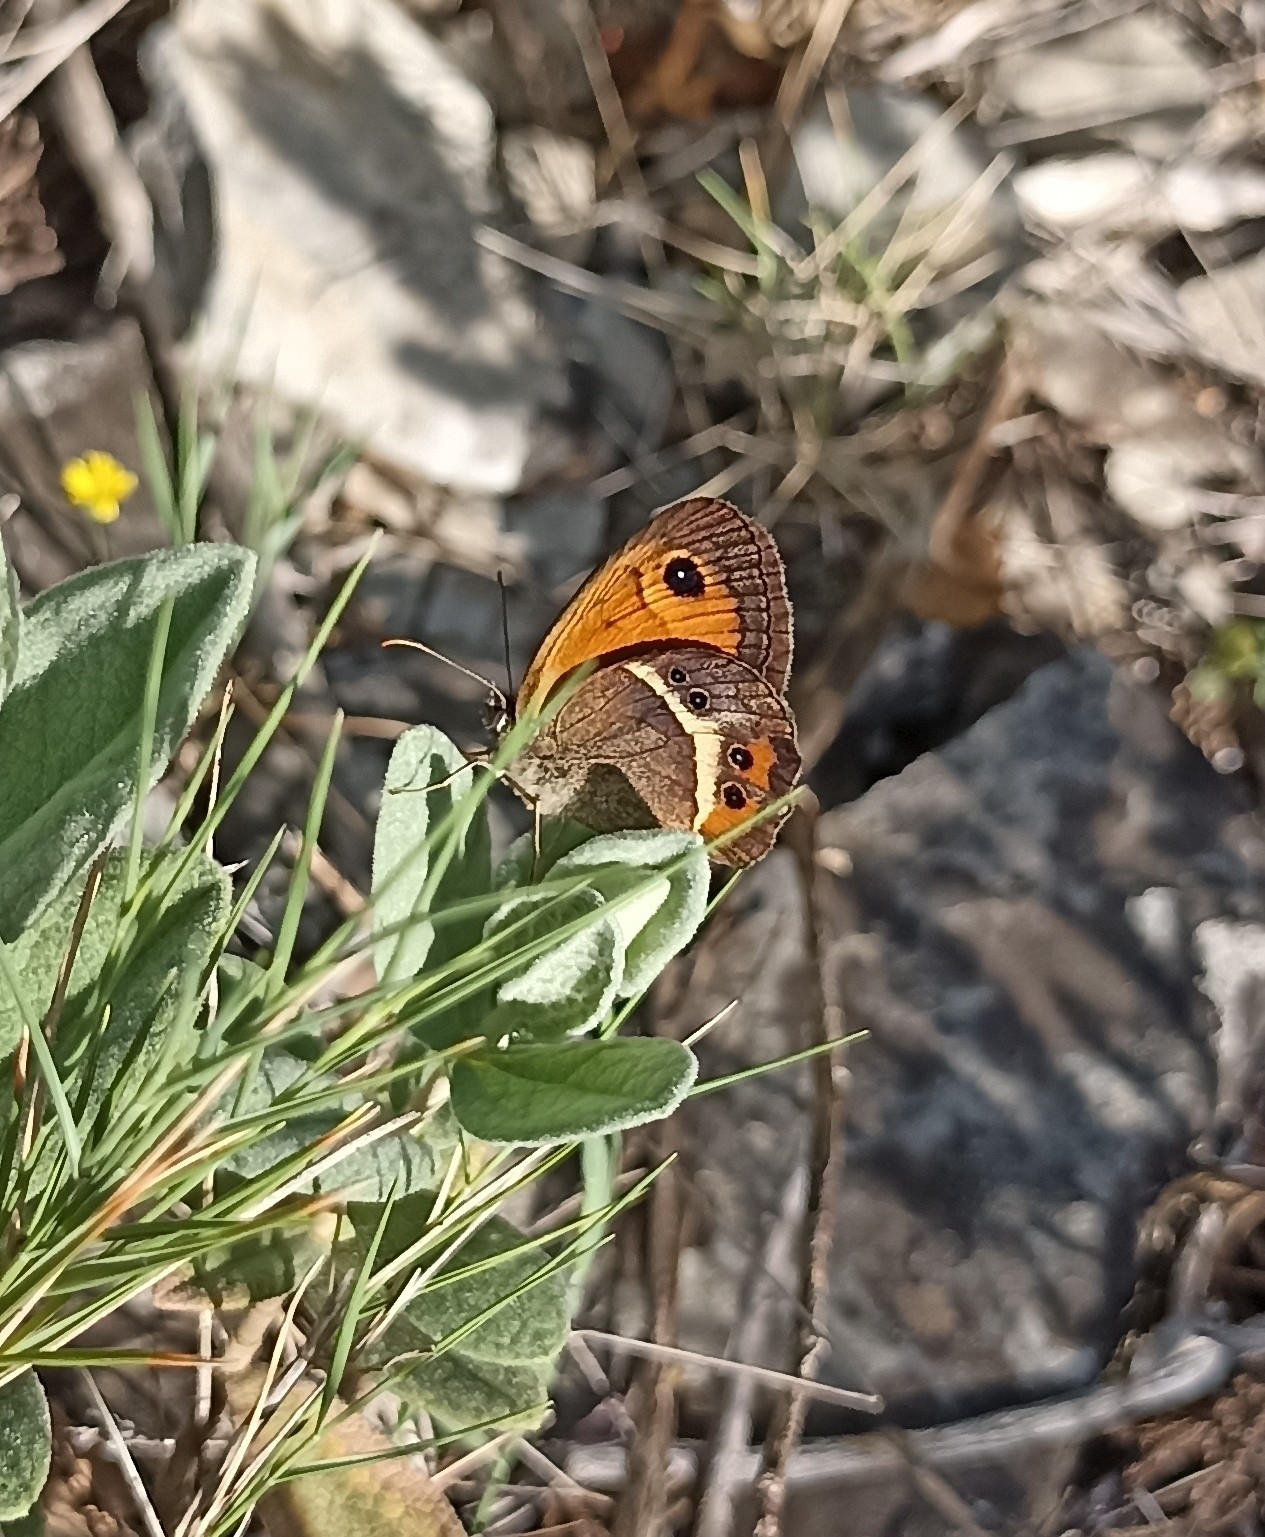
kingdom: Animalia
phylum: Arthropoda
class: Insecta
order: Lepidoptera
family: Nymphalidae
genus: Pyronia
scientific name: Pyronia bathseba
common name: Spanish gatekeeper
